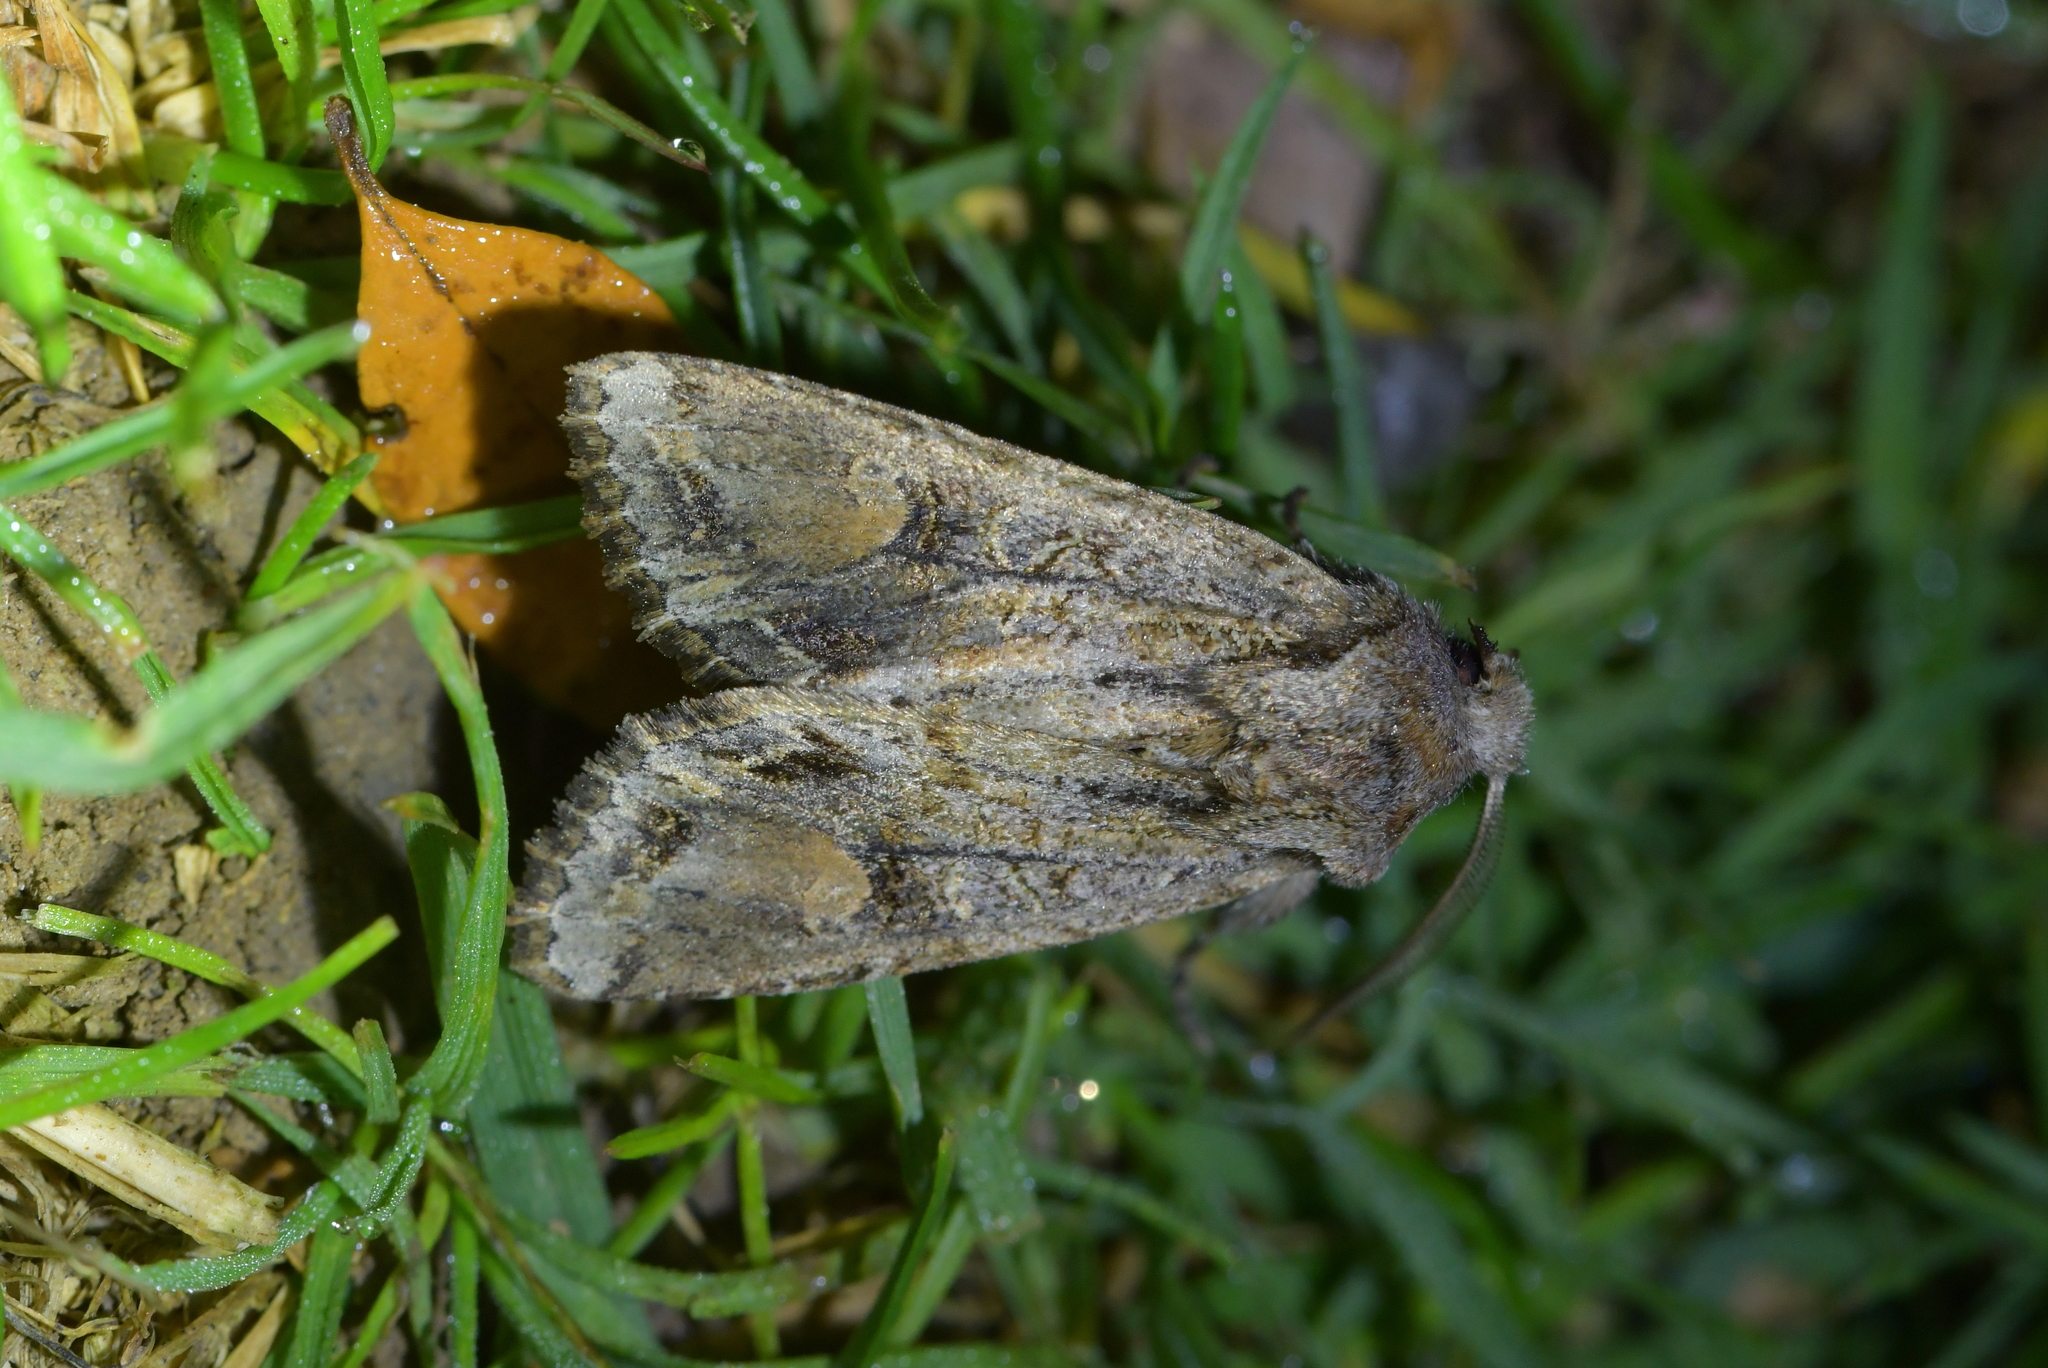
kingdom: Animalia
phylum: Arthropoda
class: Insecta
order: Lepidoptera
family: Noctuidae
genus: Ichneutica
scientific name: Ichneutica
